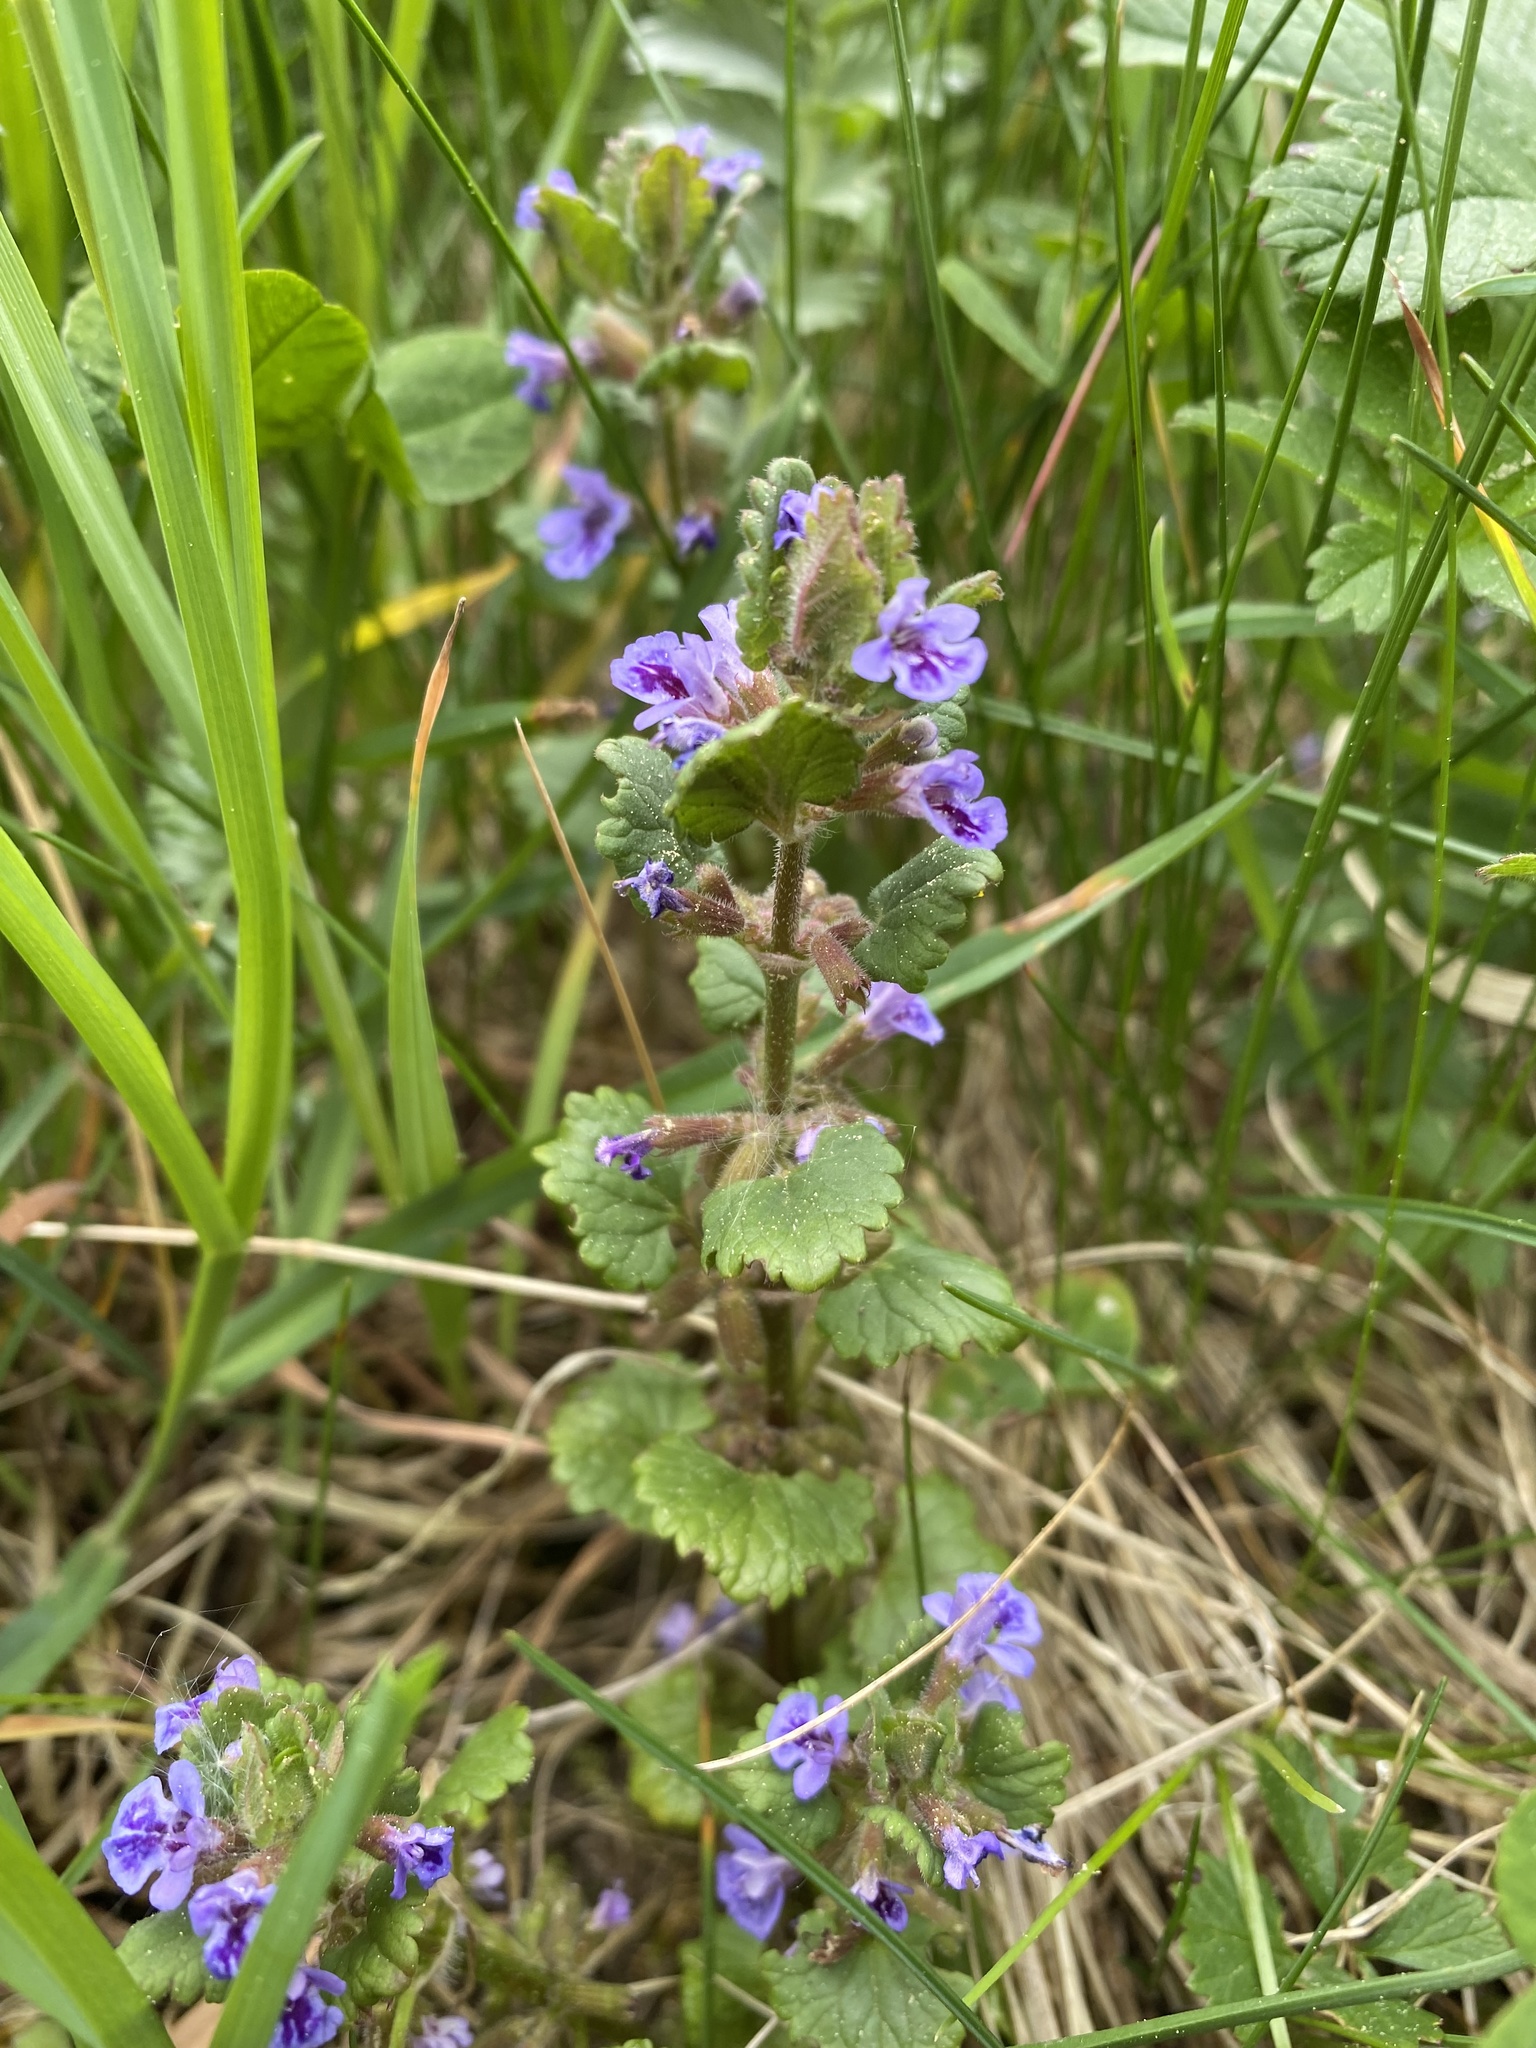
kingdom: Plantae
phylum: Tracheophyta
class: Magnoliopsida
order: Lamiales
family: Lamiaceae
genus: Glechoma
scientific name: Glechoma hederacea
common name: Ground ivy
